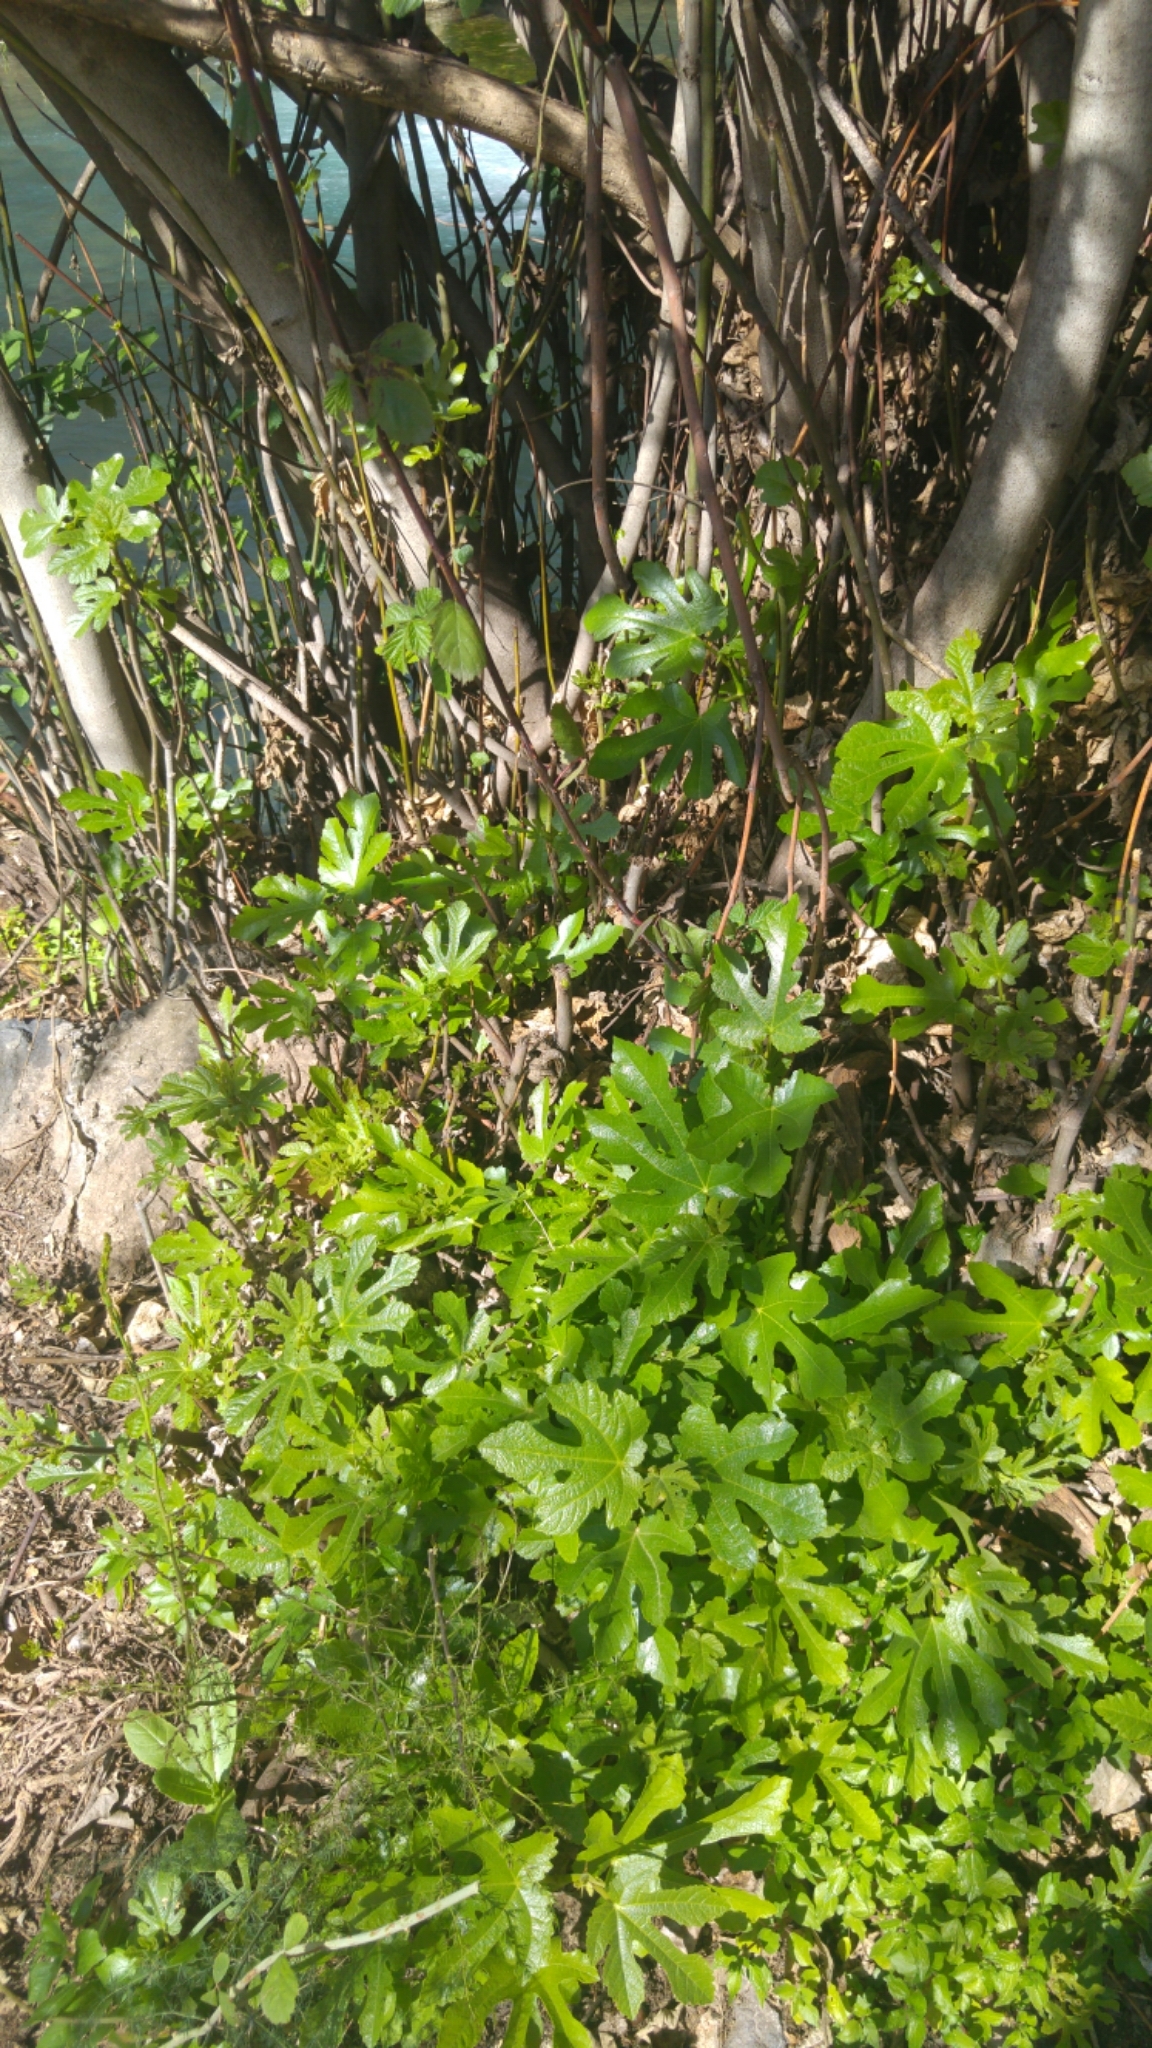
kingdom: Plantae
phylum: Tracheophyta
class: Magnoliopsida
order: Rosales
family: Moraceae
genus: Ficus
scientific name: Ficus carica
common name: Fig
